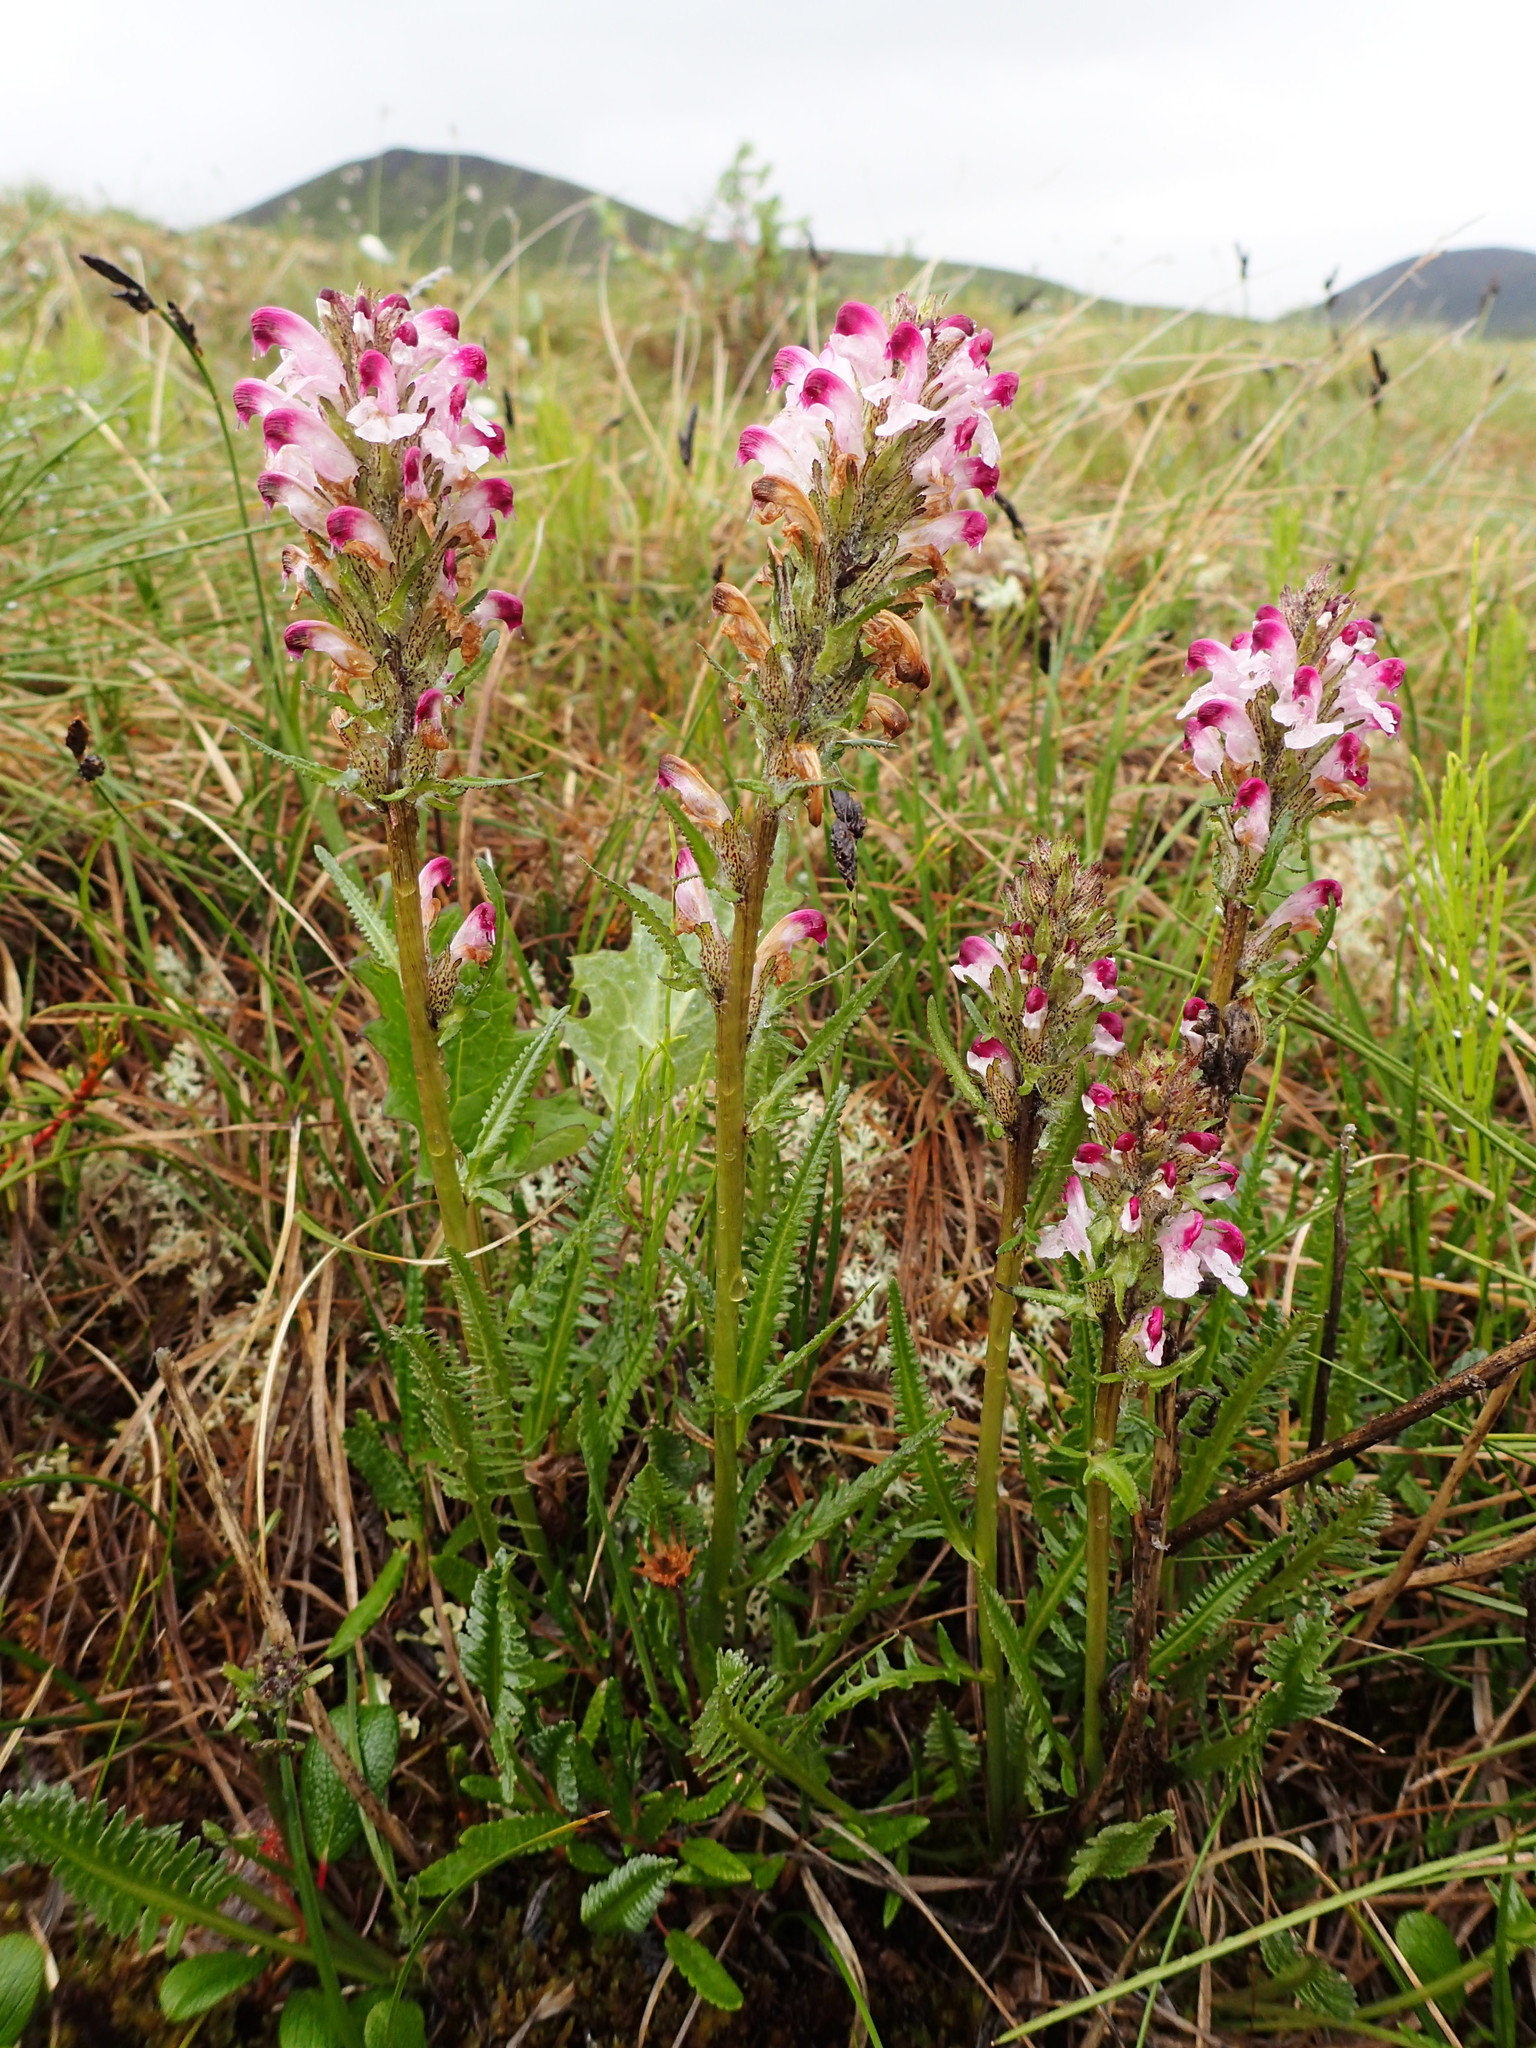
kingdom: Plantae
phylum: Tracheophyta
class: Magnoliopsida
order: Lamiales
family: Orobanchaceae
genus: Pedicularis
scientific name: Pedicularis sudetica
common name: Sudeten lousewort
